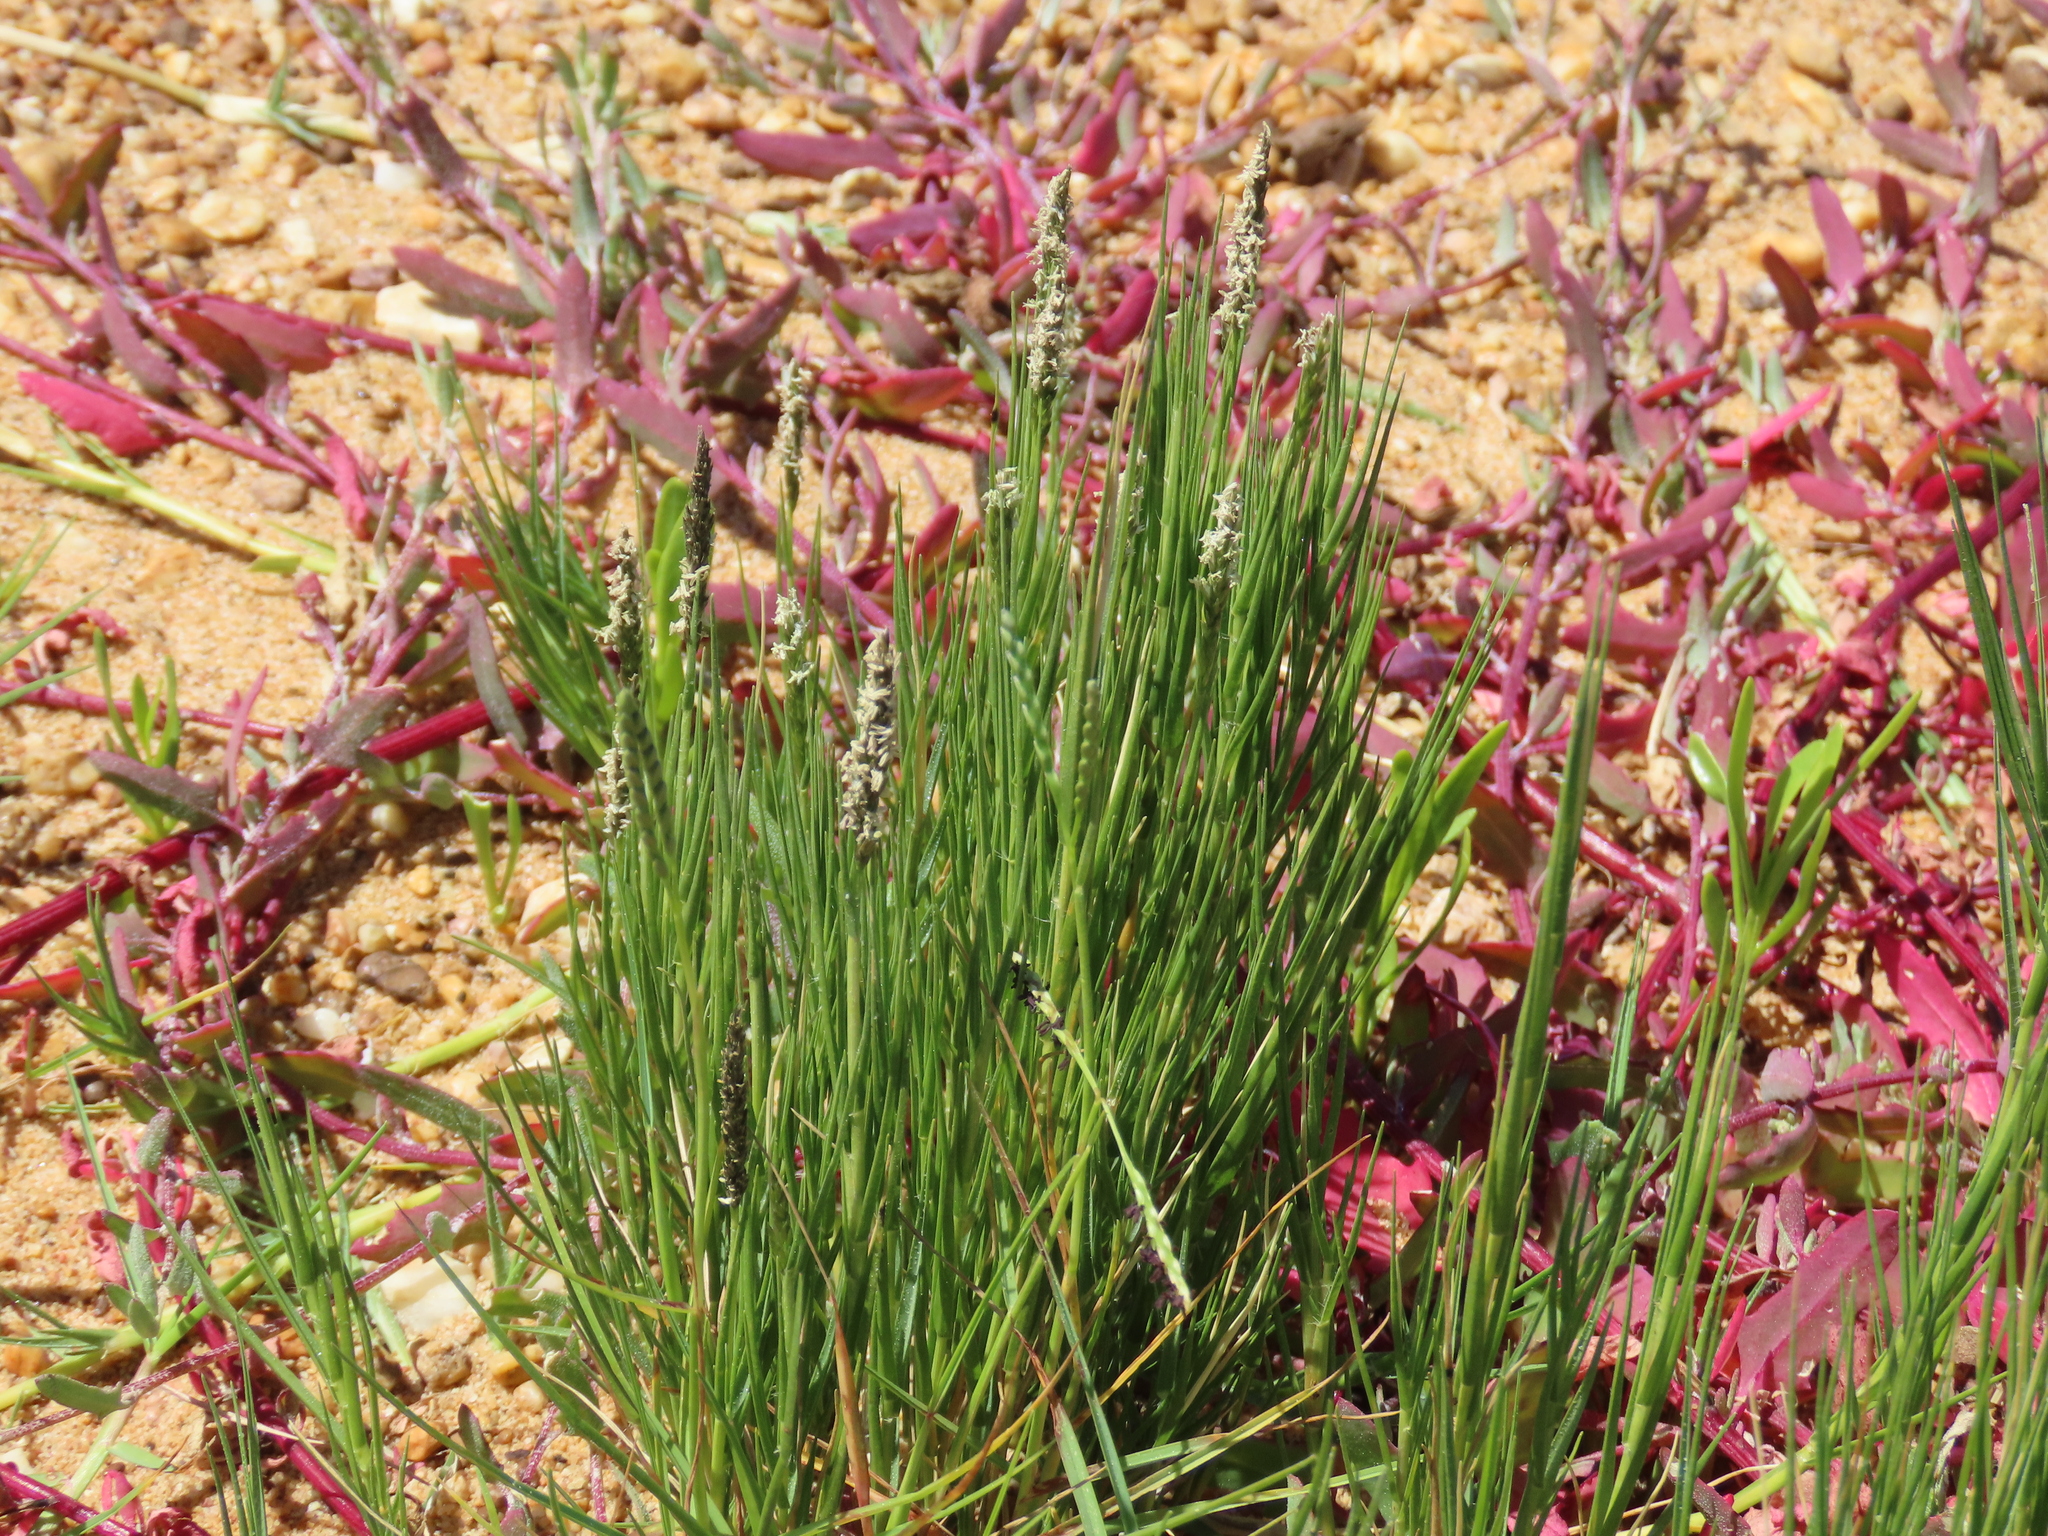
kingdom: Plantae
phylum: Tracheophyta
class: Liliopsida
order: Poales
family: Poaceae
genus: Sporobolus
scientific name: Sporobolus virginicus
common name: Beach dropseed
